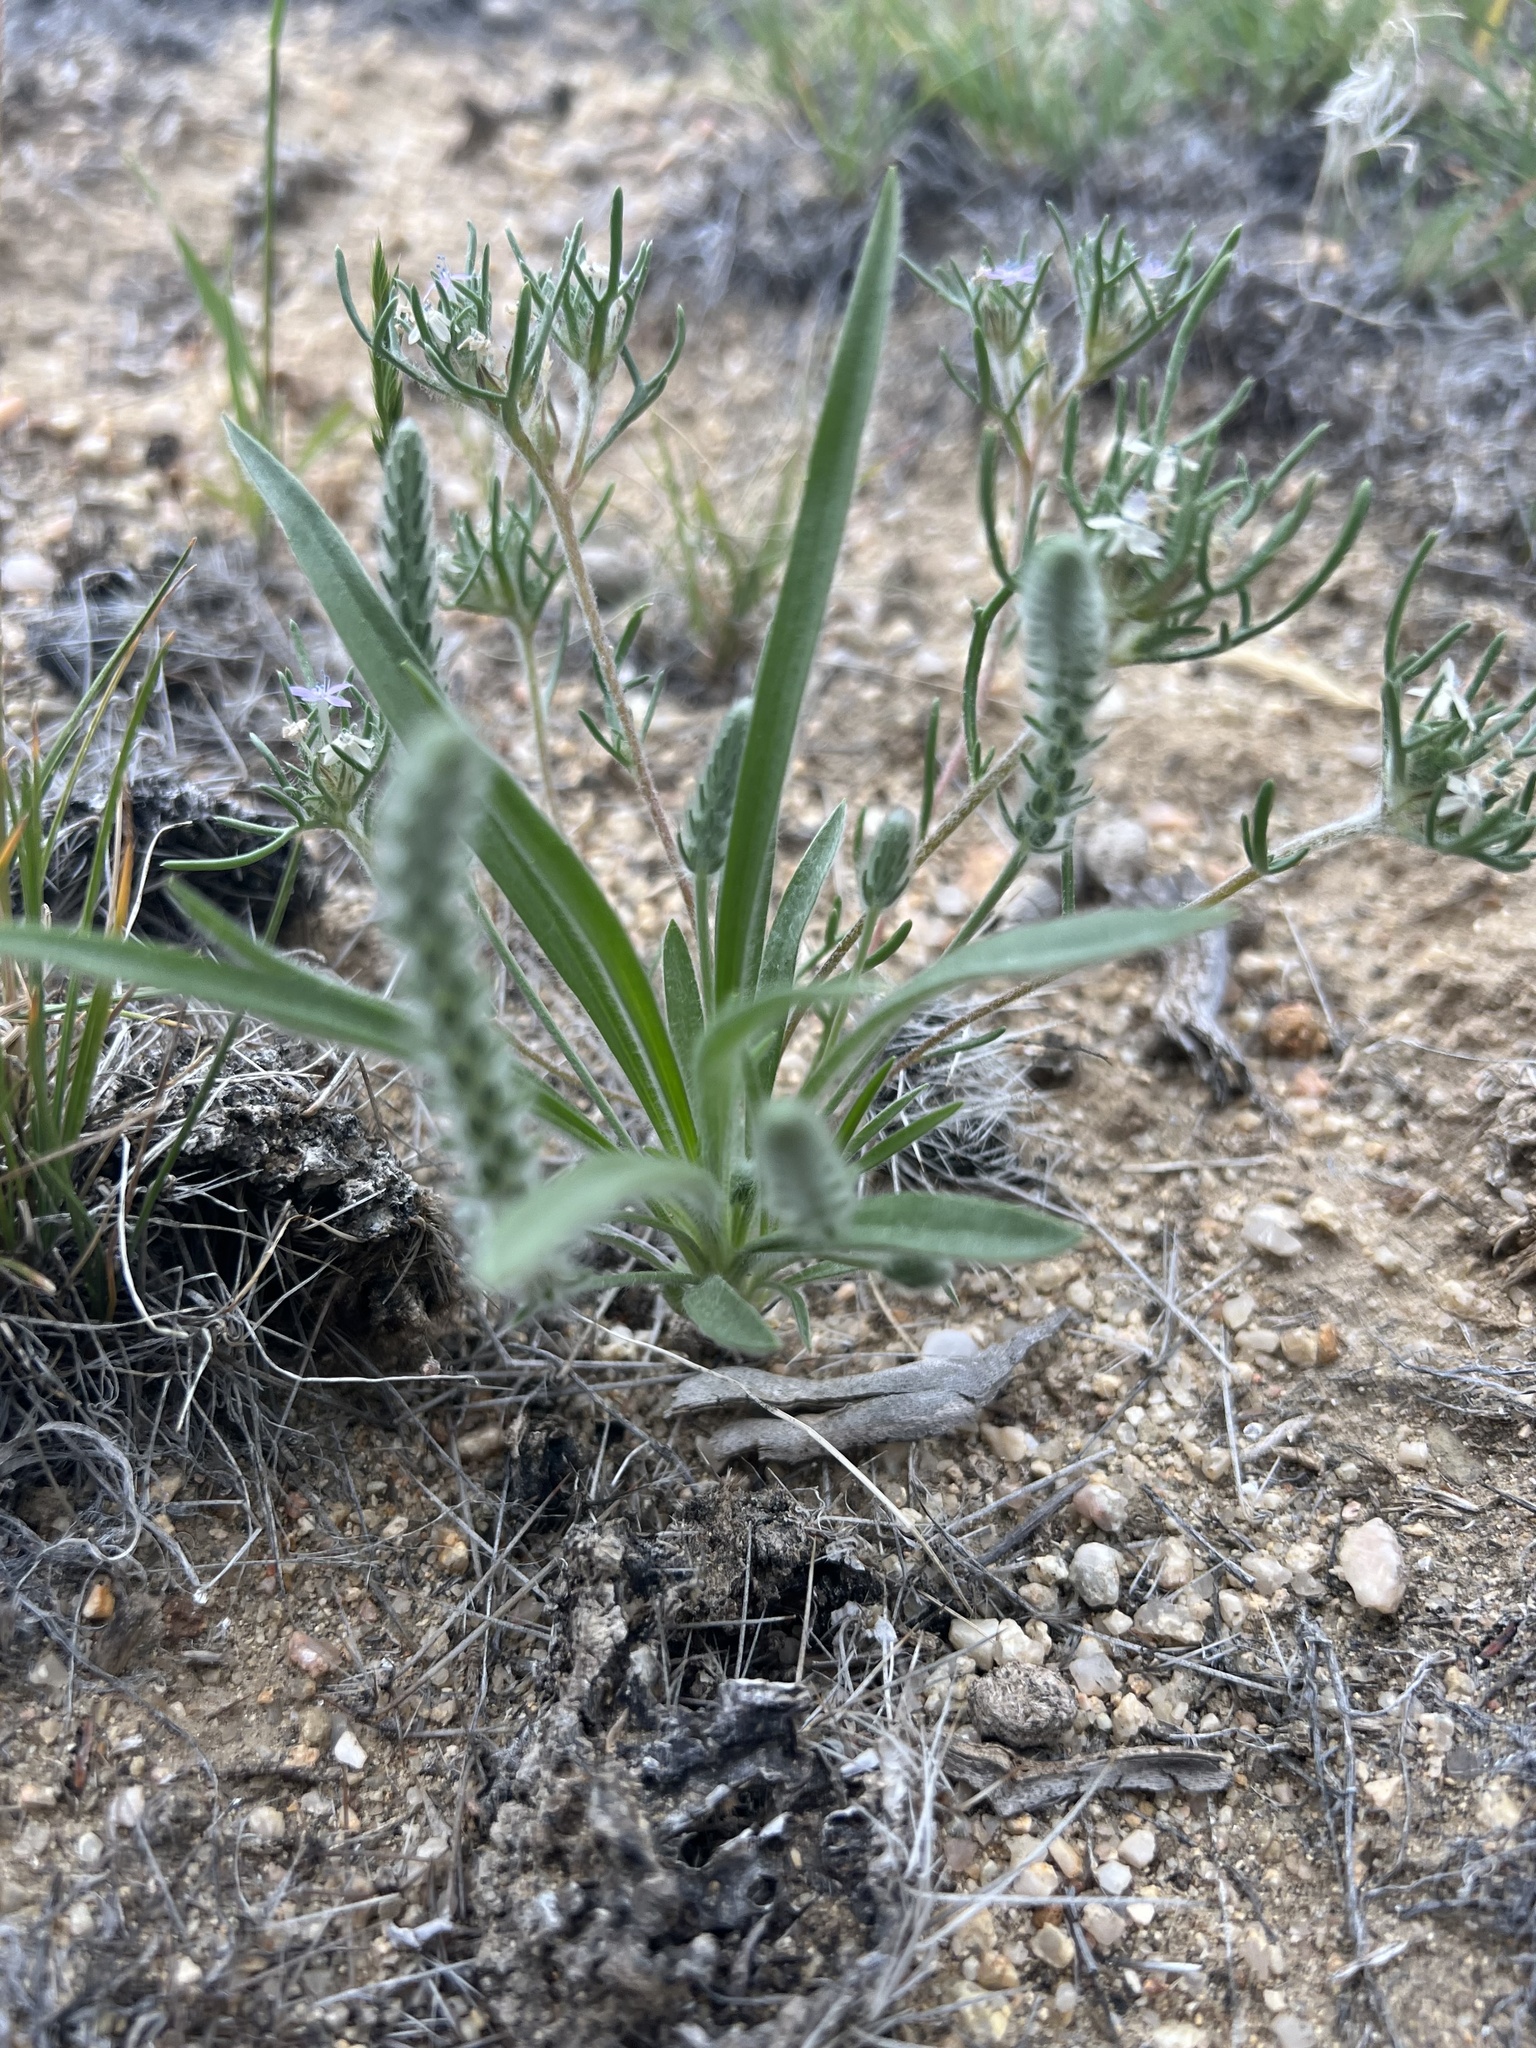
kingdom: Plantae
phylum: Tracheophyta
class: Magnoliopsida
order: Lamiales
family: Plantaginaceae
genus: Plantago
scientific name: Plantago patagonica
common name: Patagonia indian-wheat
